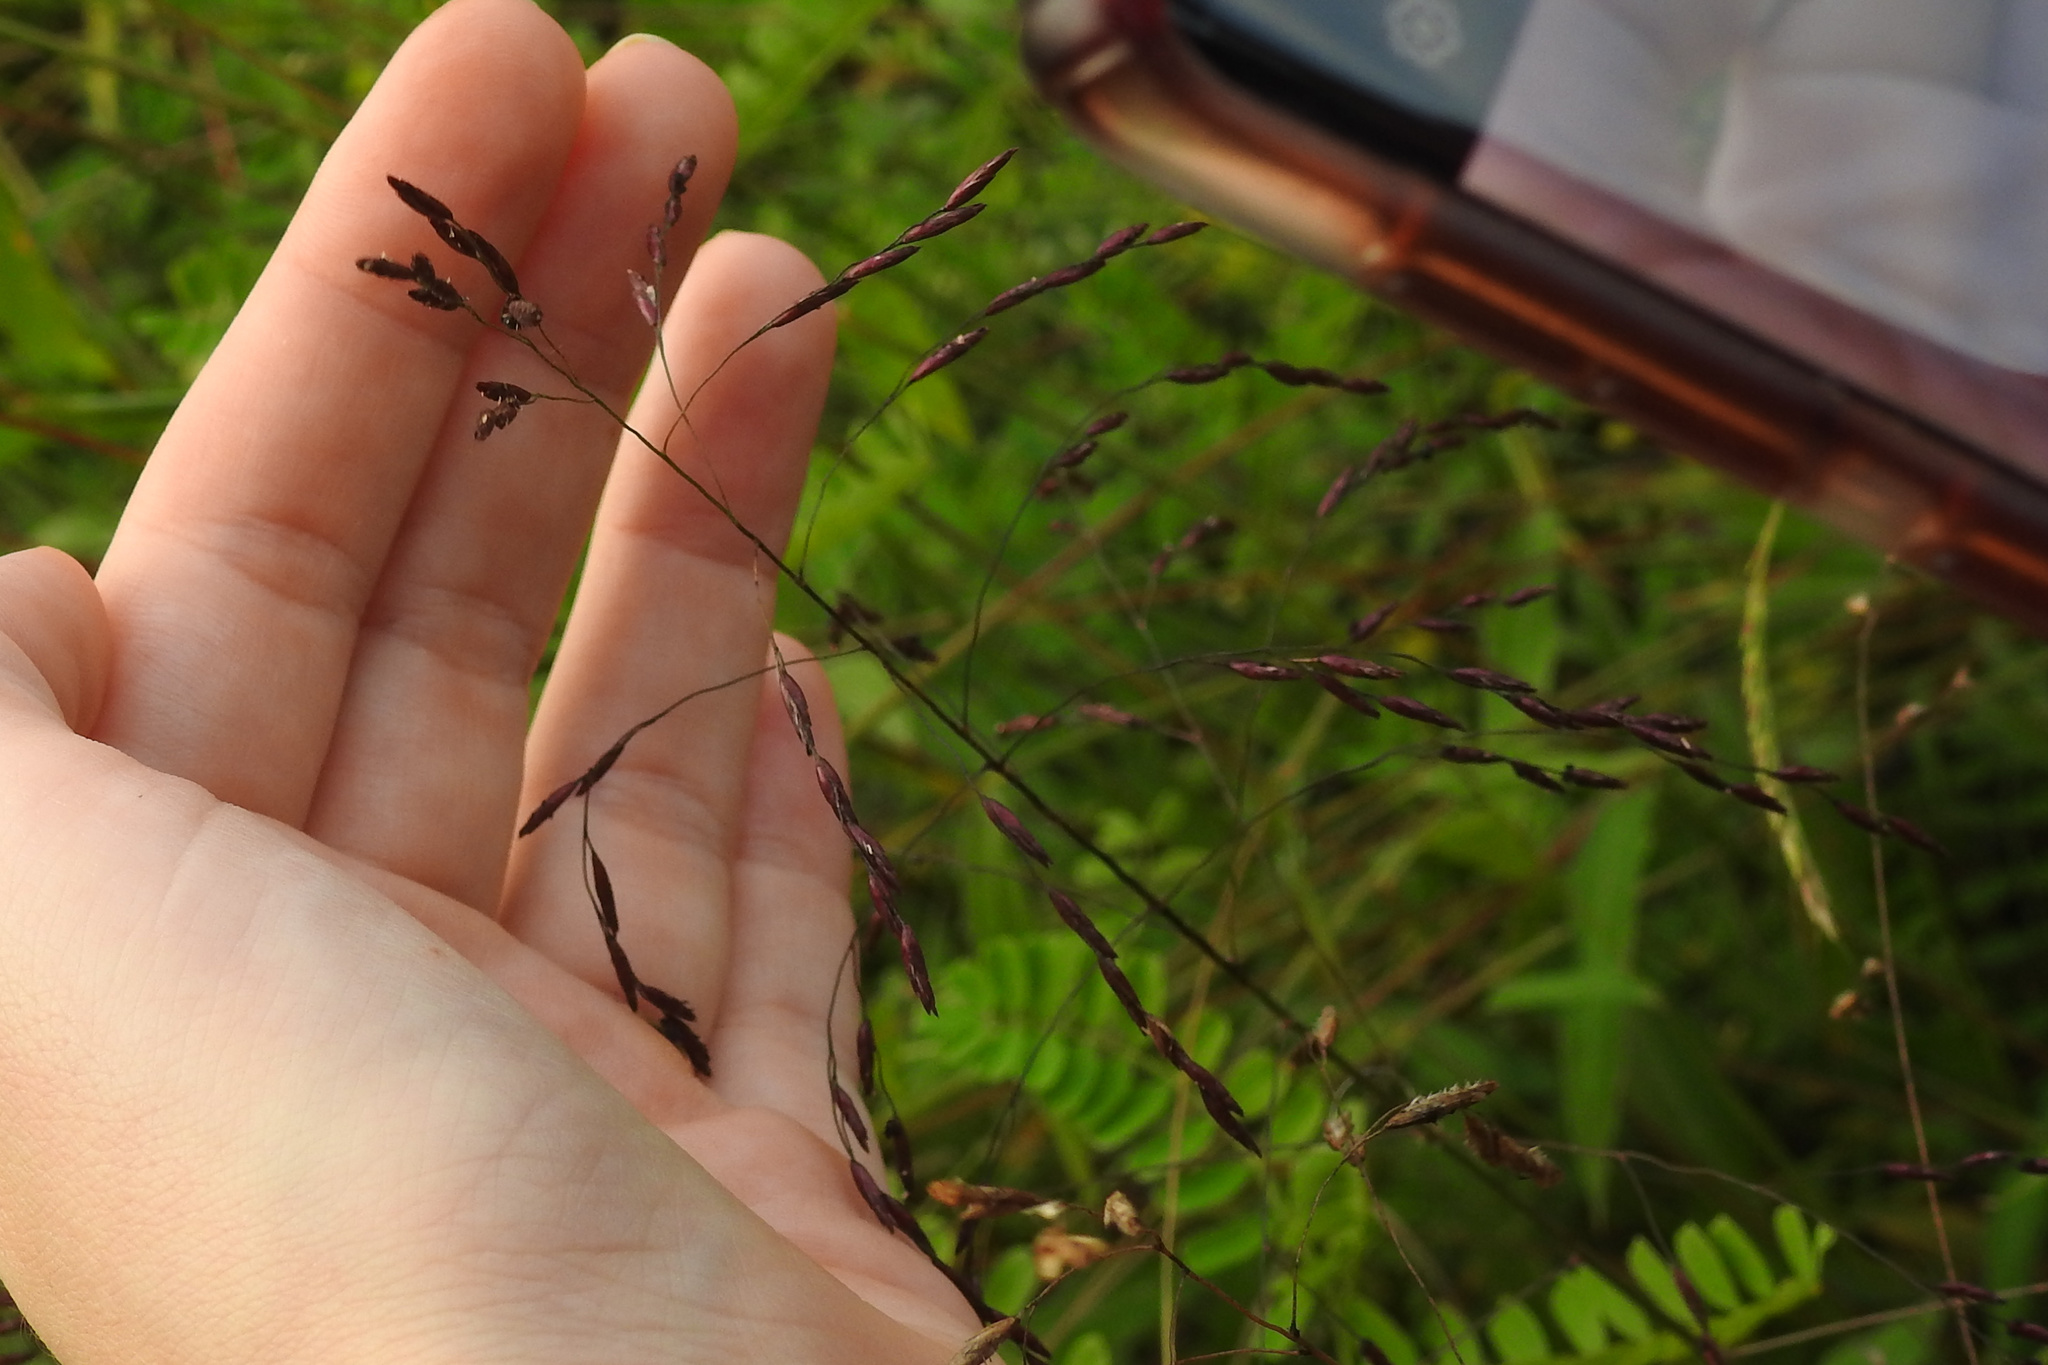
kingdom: Plantae
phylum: Tracheophyta
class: Liliopsida
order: Poales
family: Poaceae
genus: Tridens
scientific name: Tridens flavus
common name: Purpletop
